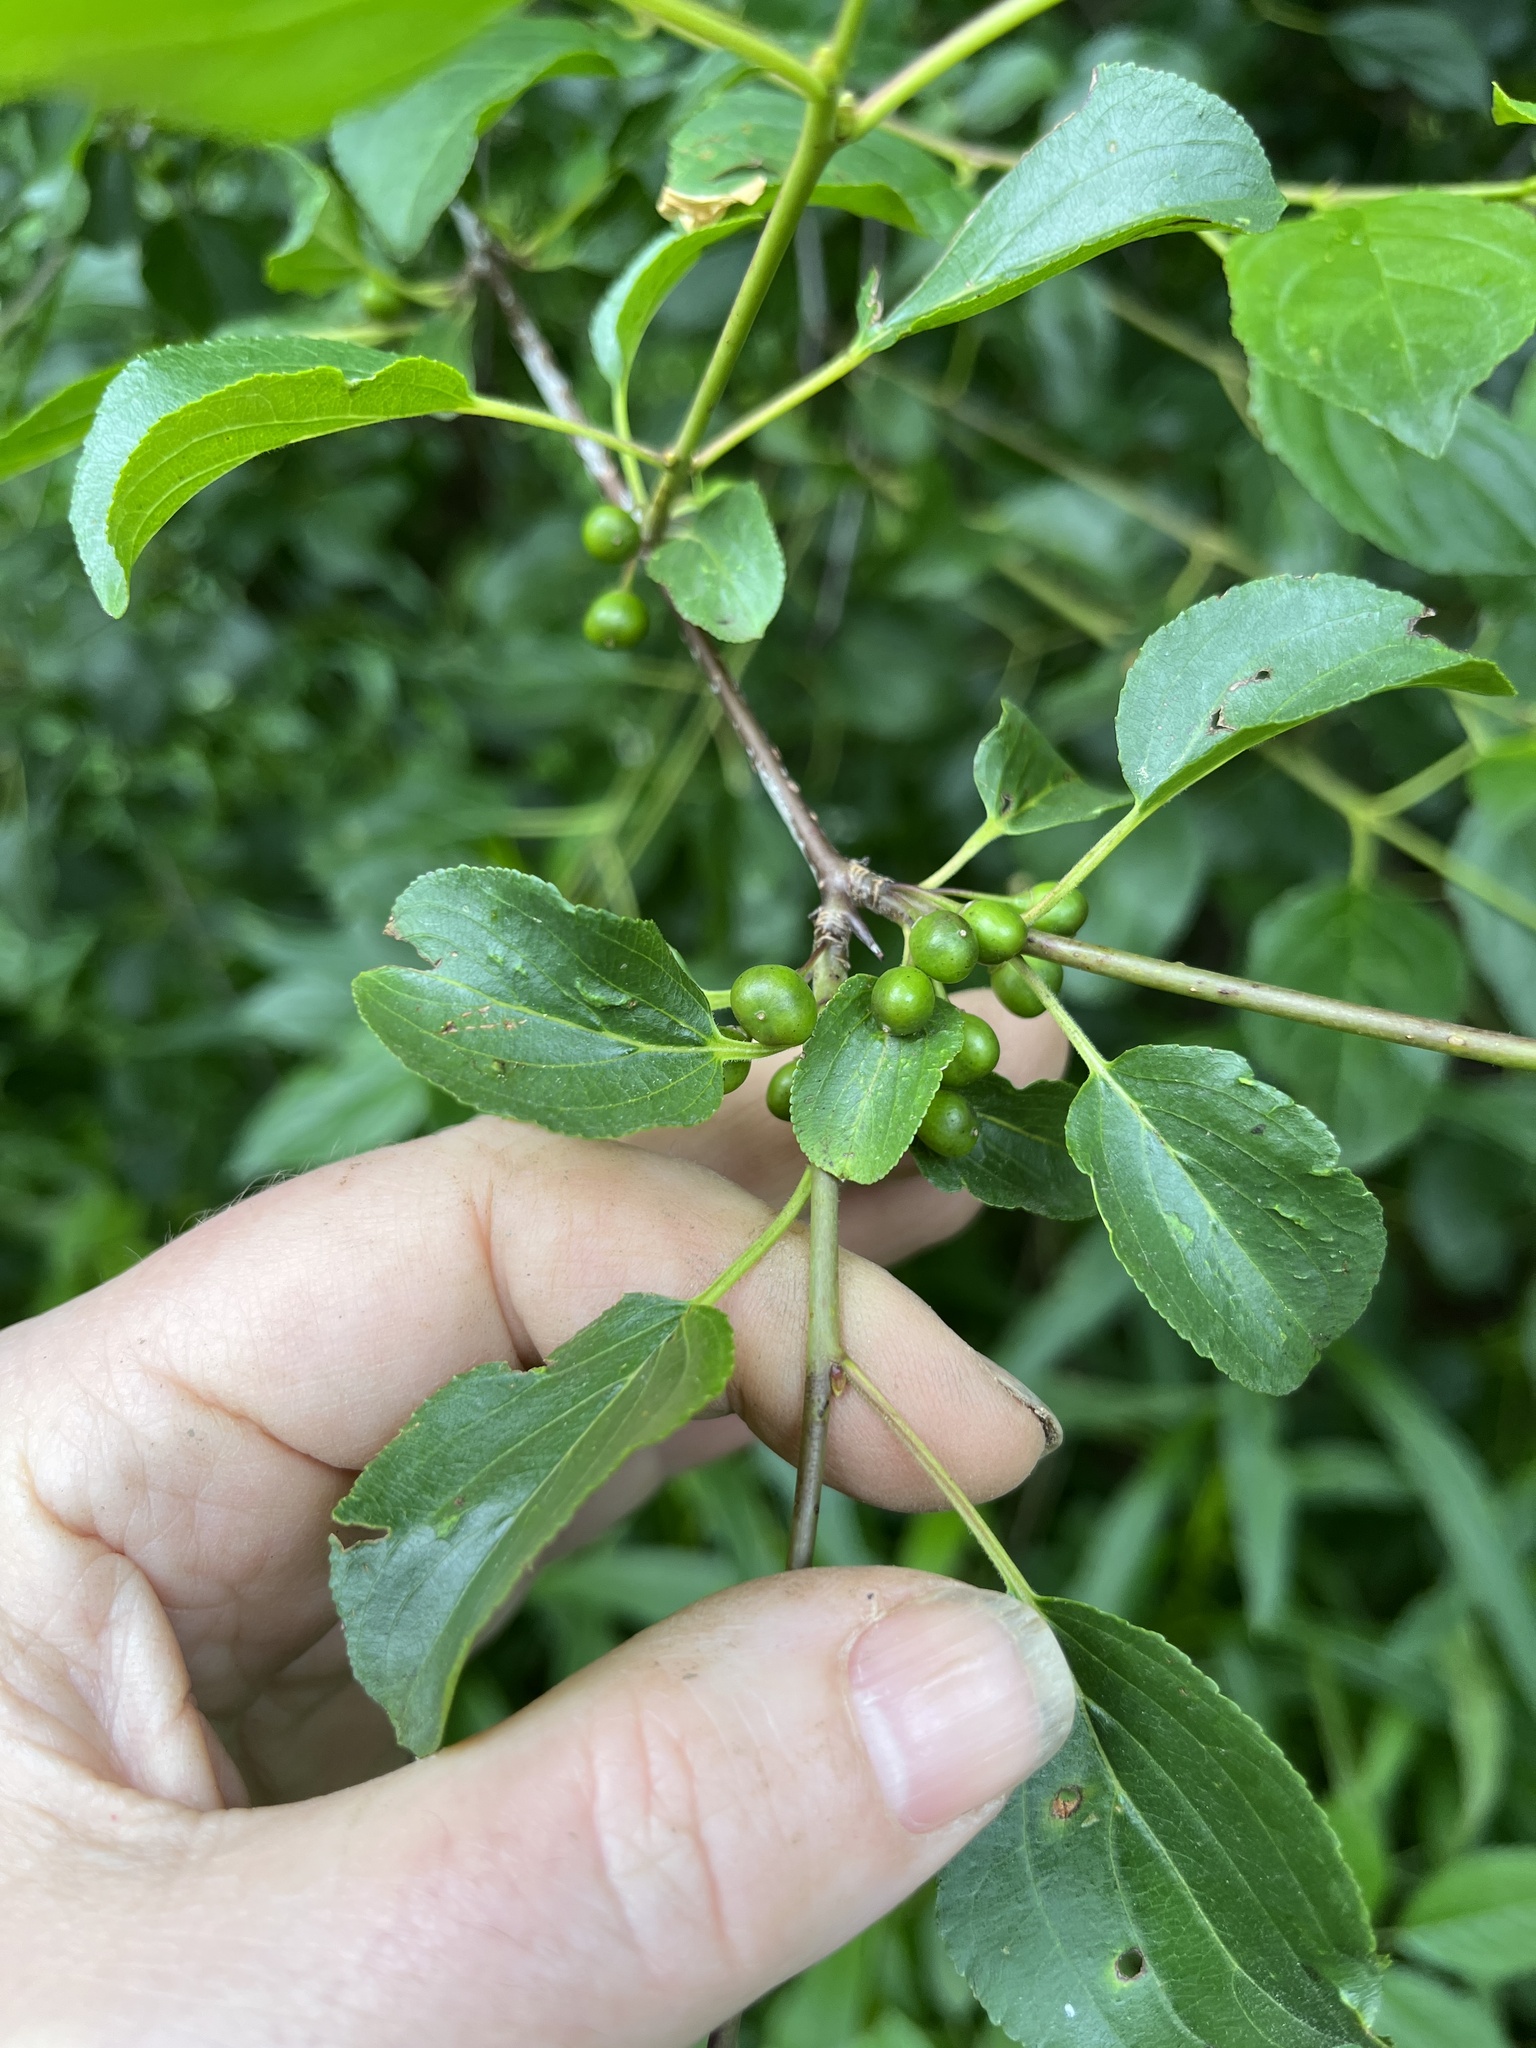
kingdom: Plantae
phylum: Tracheophyta
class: Magnoliopsida
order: Rosales
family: Rhamnaceae
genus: Rhamnus
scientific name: Rhamnus cathartica
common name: Common buckthorn
